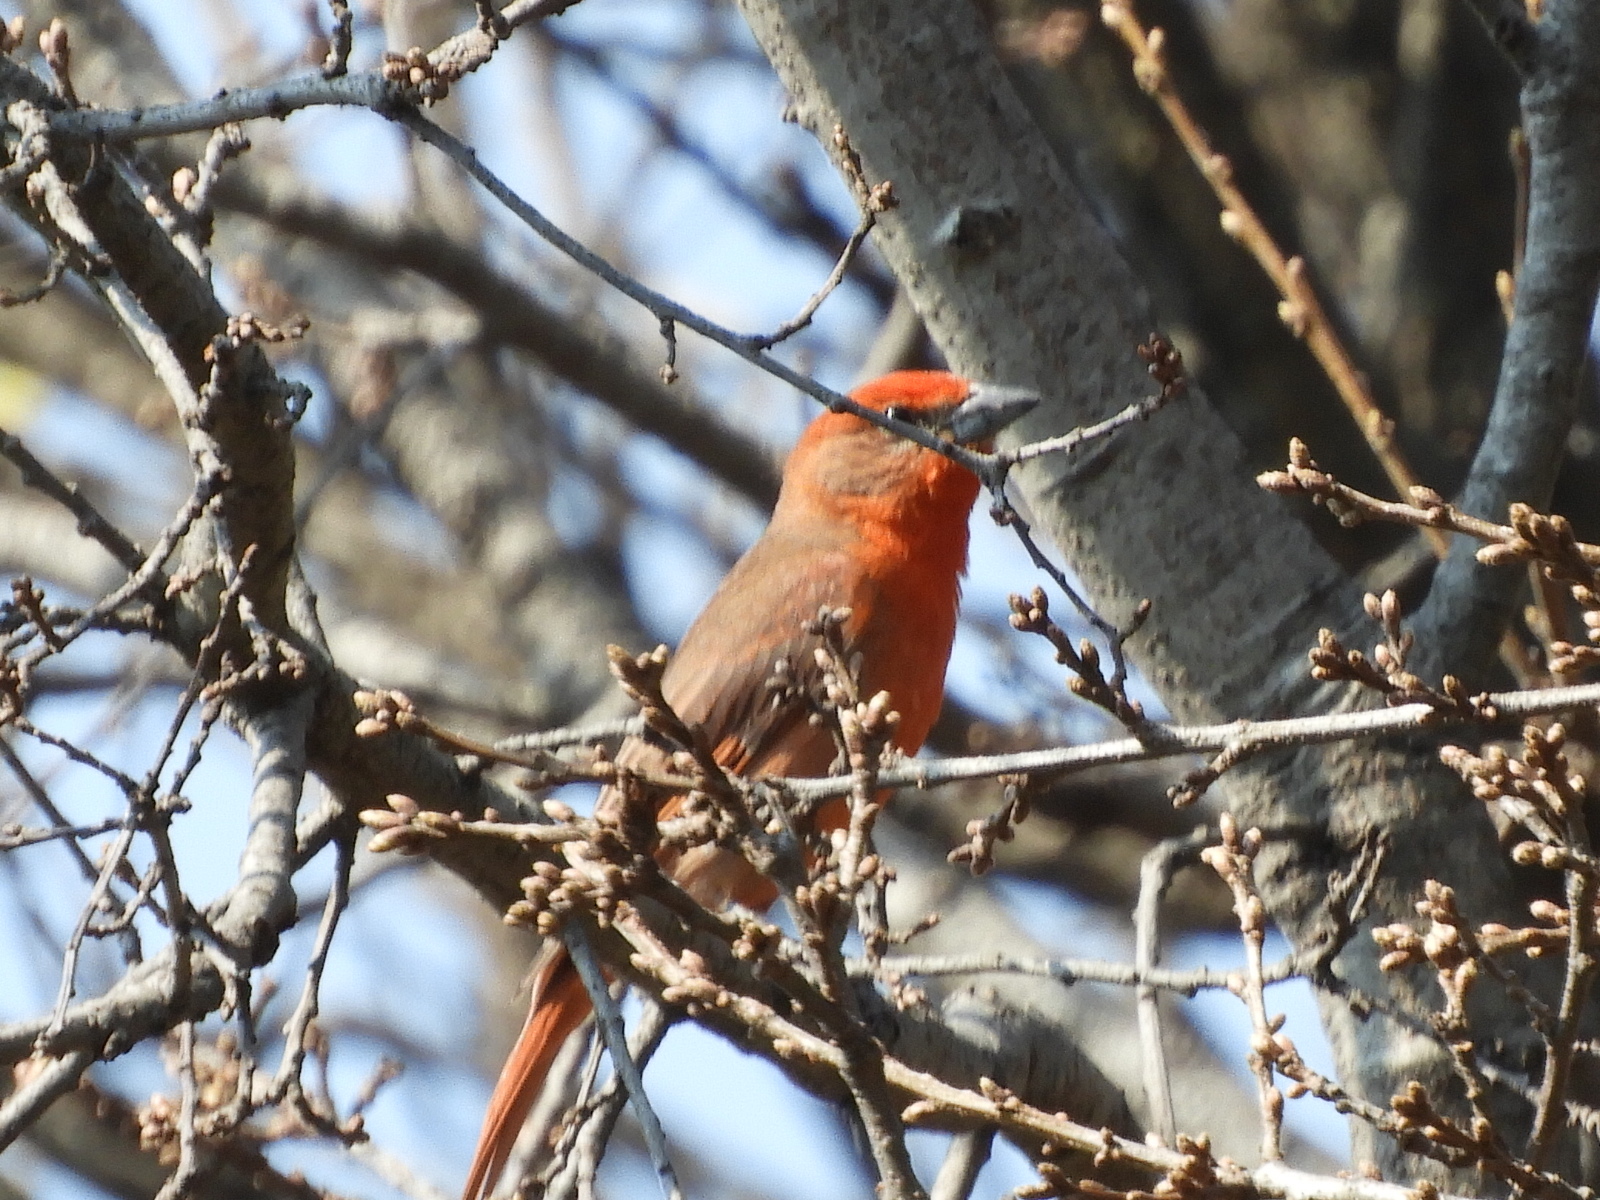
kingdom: Animalia
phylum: Chordata
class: Aves
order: Passeriformes
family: Cardinalidae
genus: Piranga
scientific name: Piranga flava
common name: Red tanager
